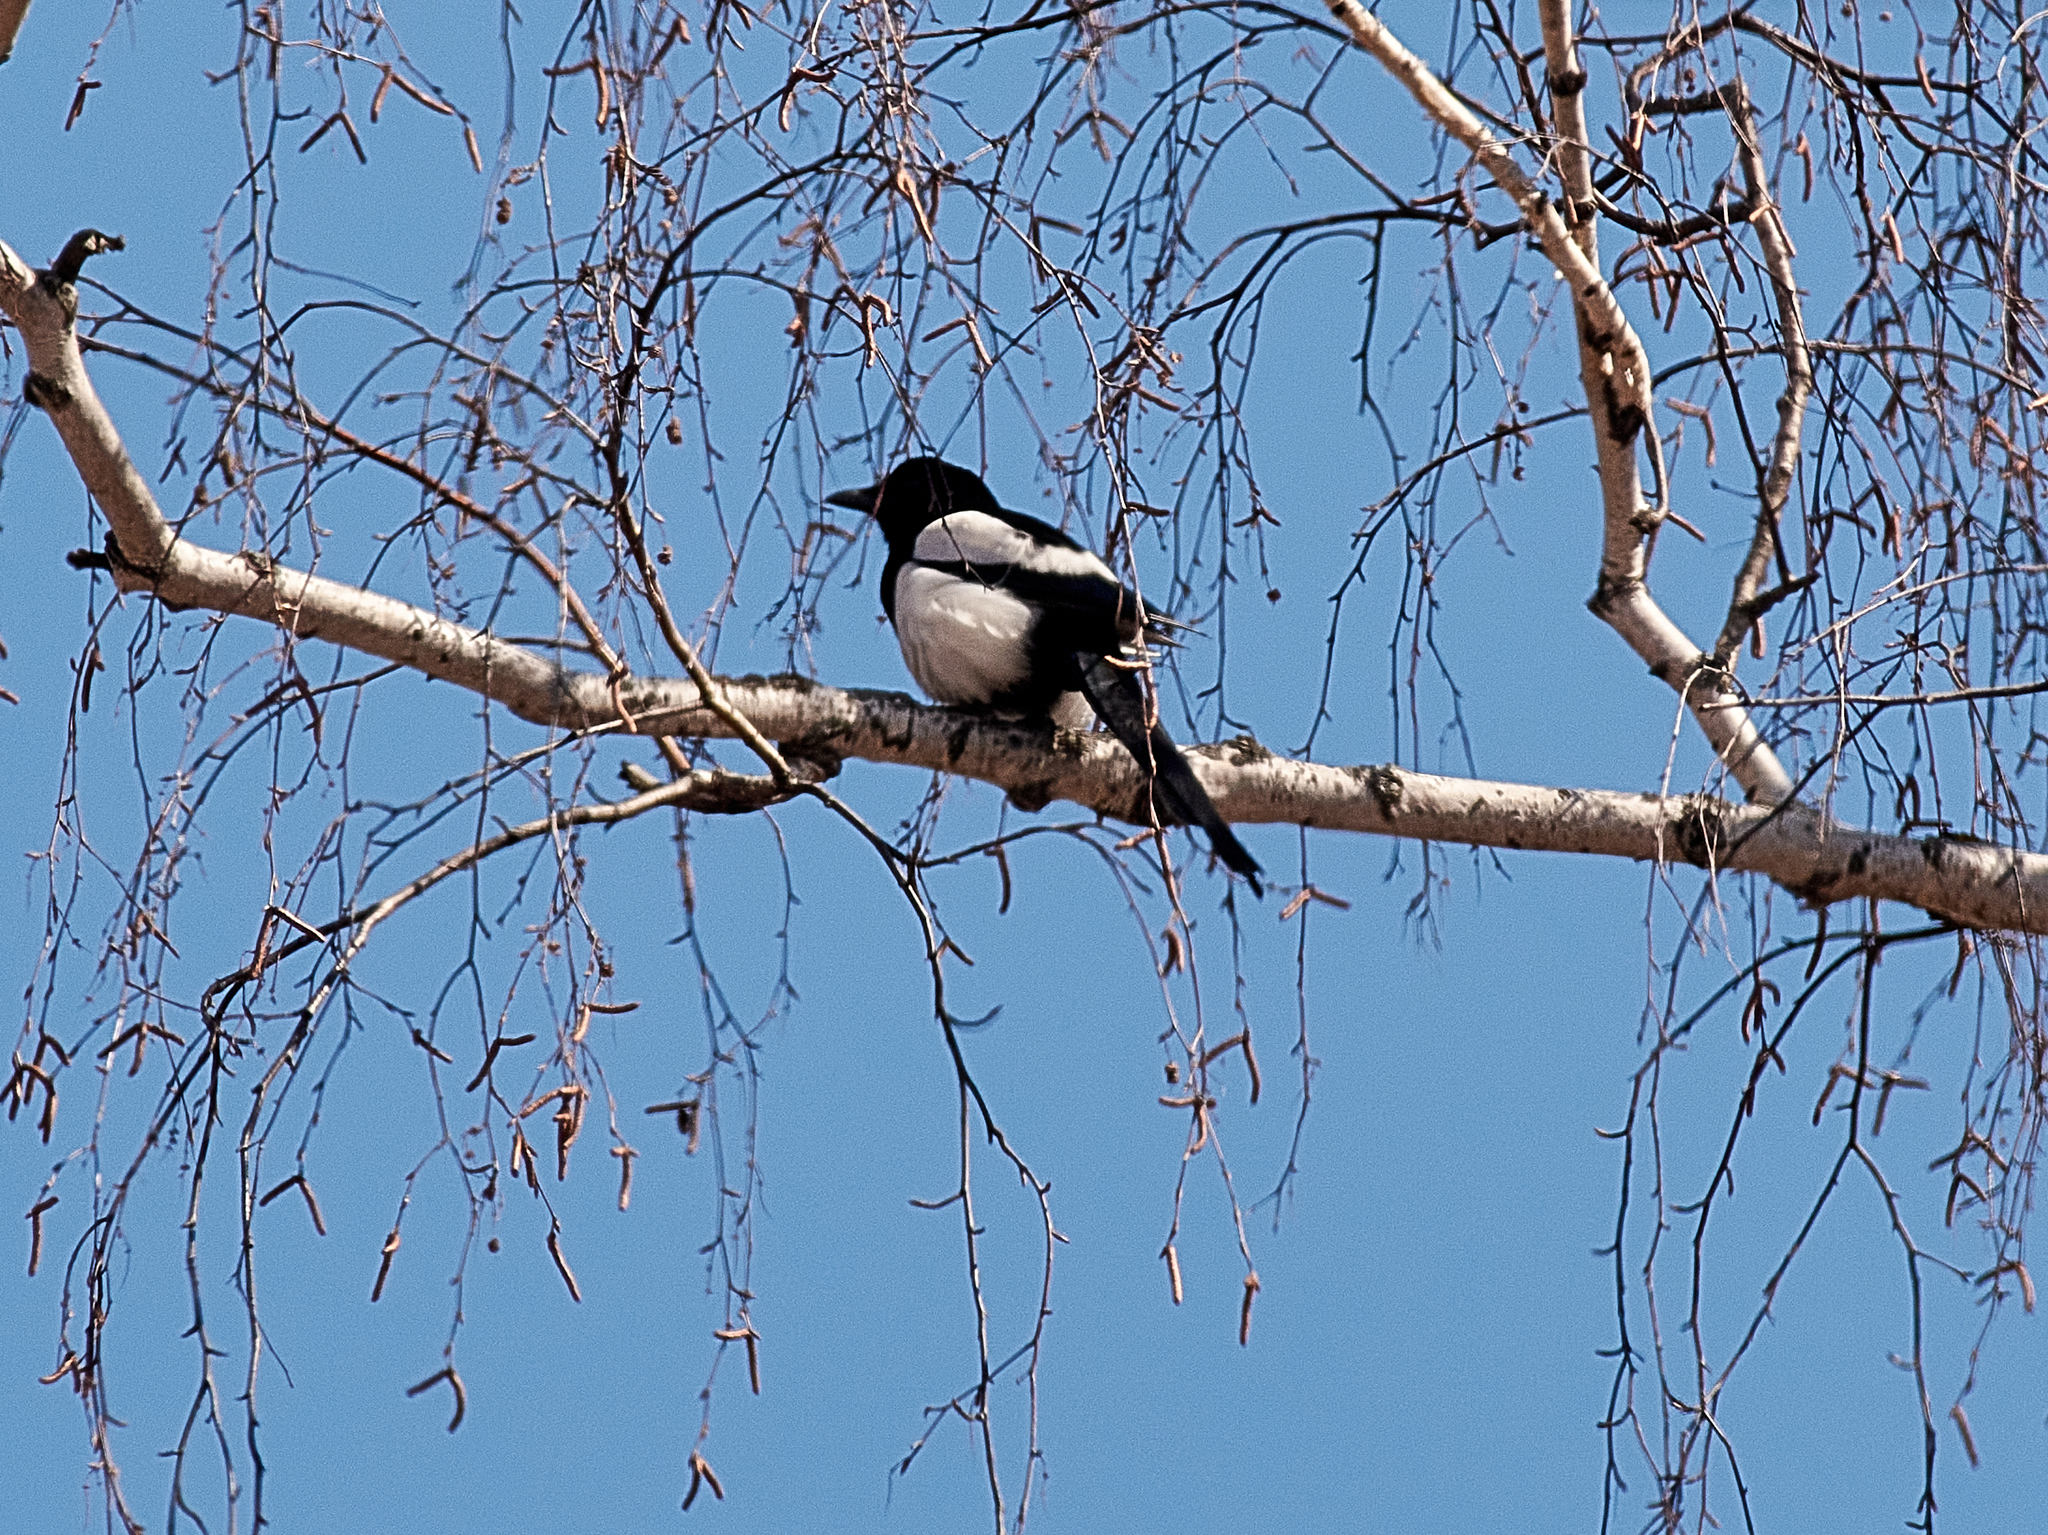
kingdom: Animalia
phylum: Chordata
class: Aves
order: Passeriformes
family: Corvidae
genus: Pica
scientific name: Pica pica
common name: Eurasian magpie
